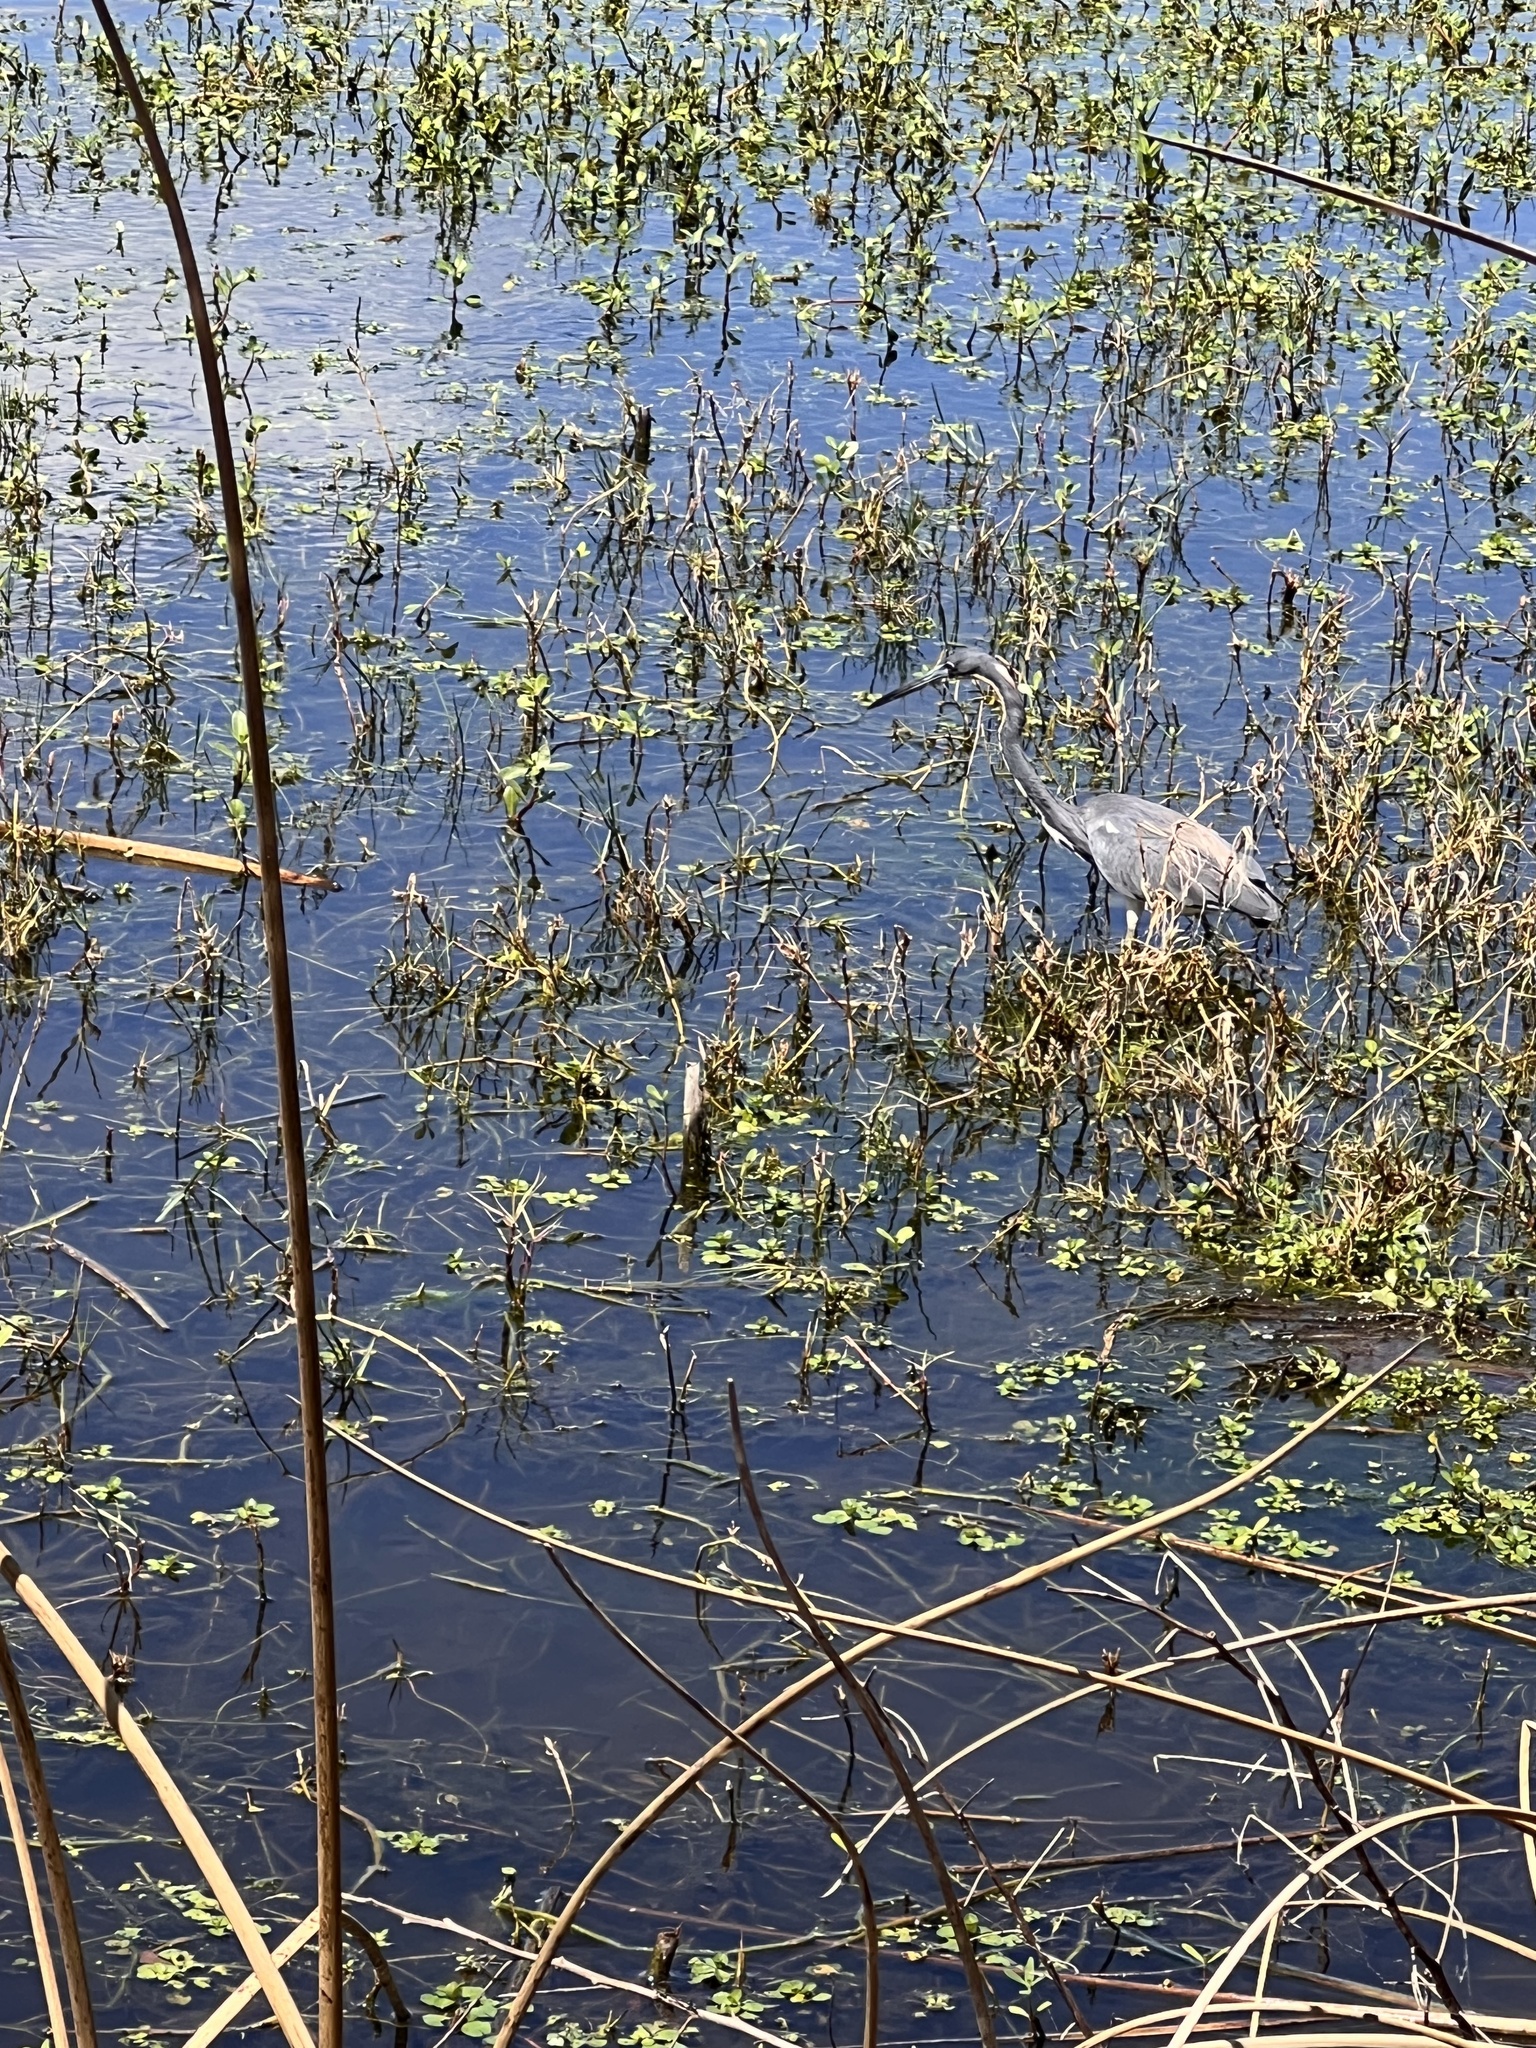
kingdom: Animalia
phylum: Chordata
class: Aves
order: Pelecaniformes
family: Ardeidae
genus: Egretta
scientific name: Egretta tricolor
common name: Tricolored heron
